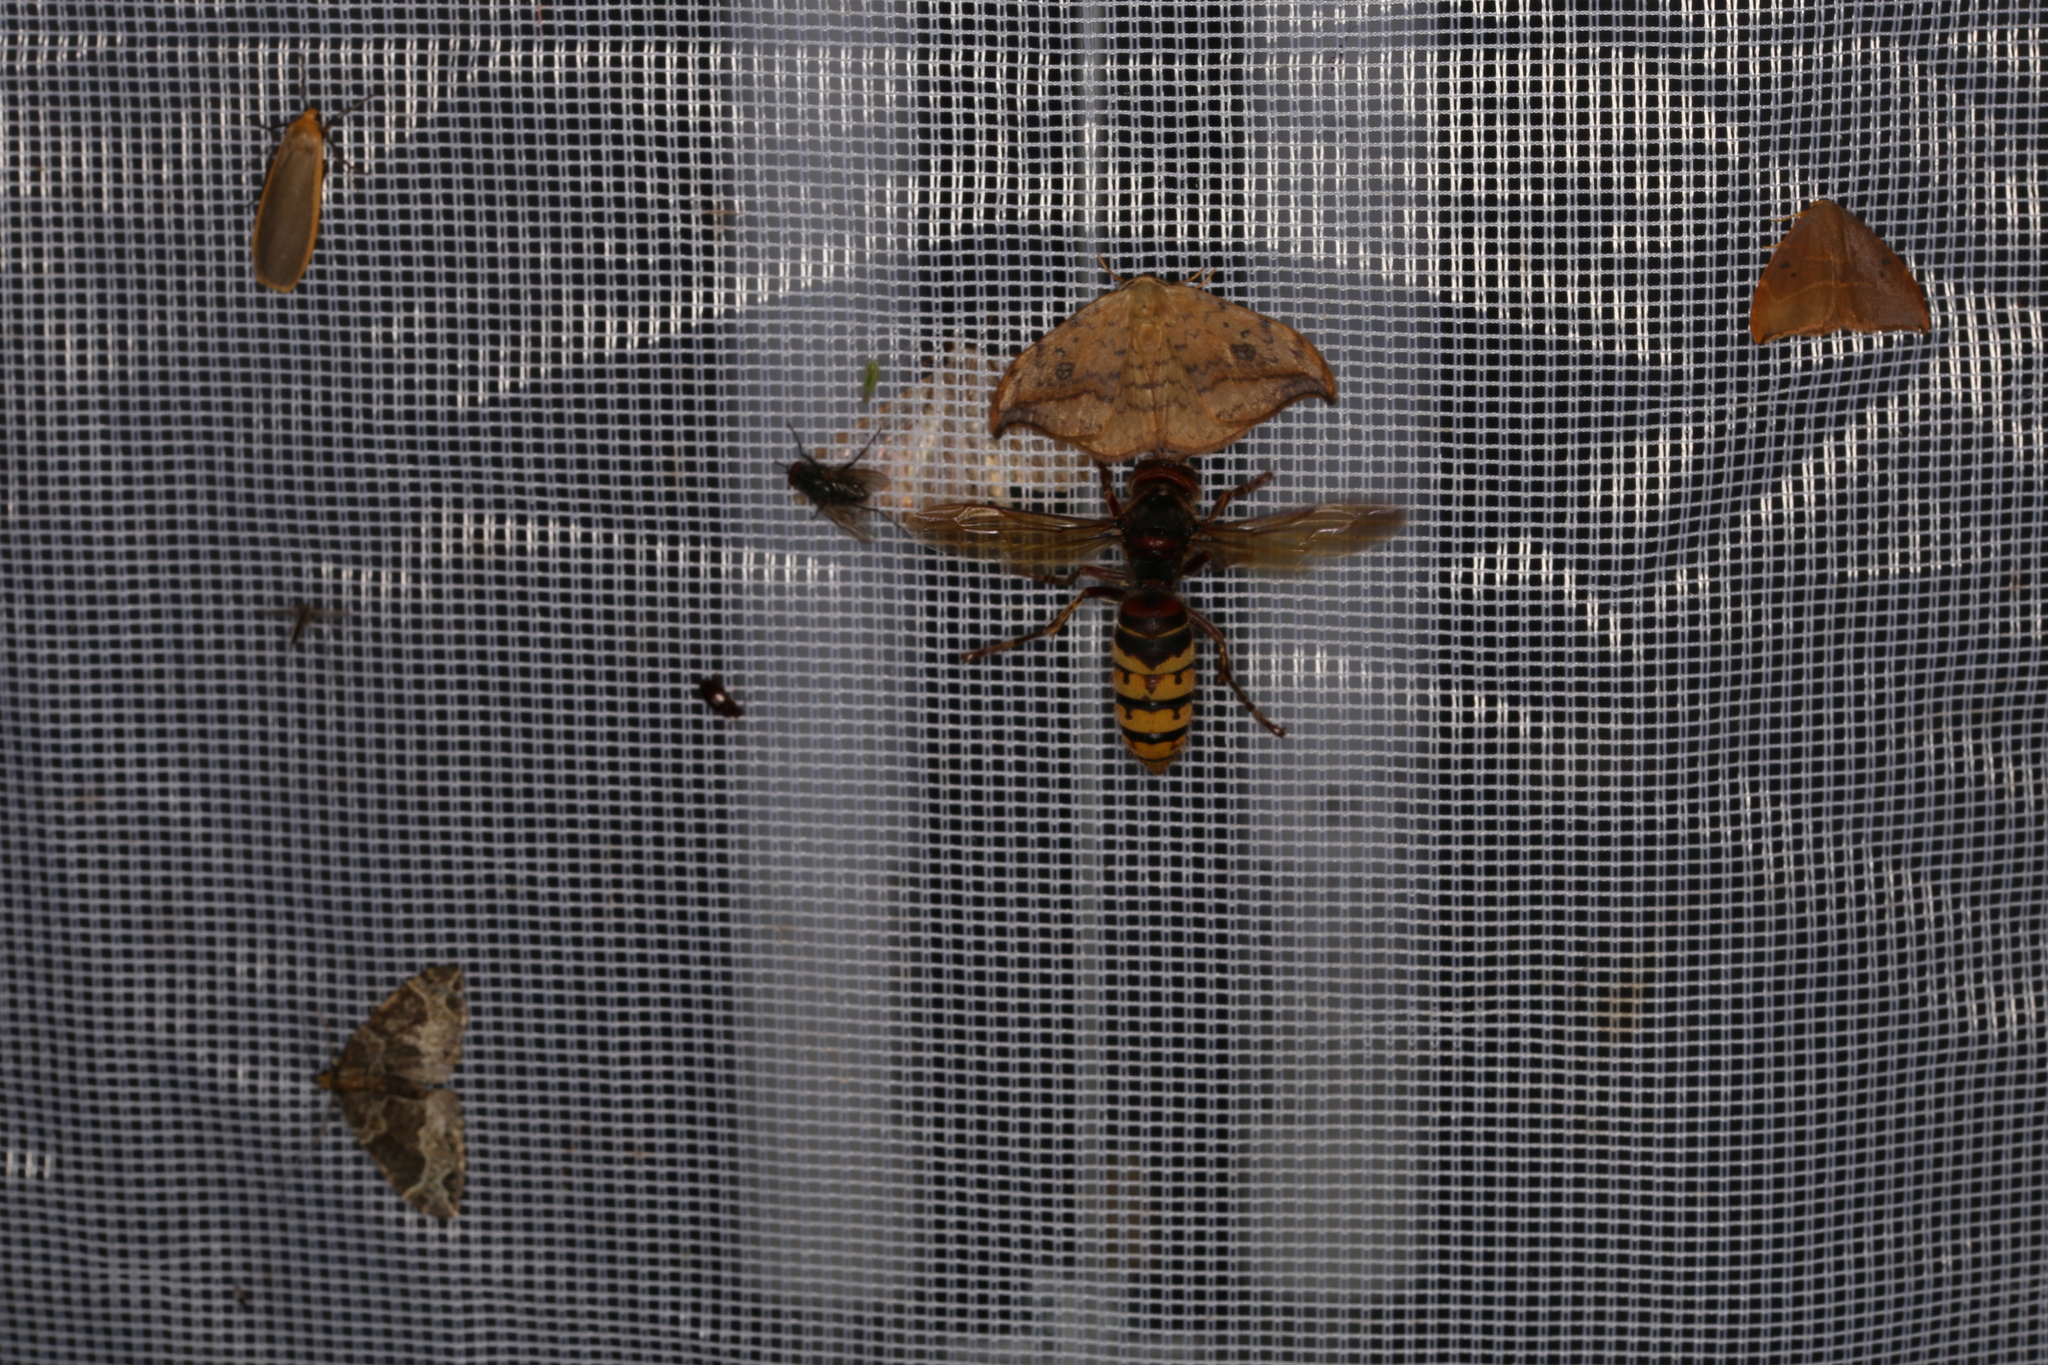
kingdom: Animalia
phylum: Arthropoda
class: Insecta
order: Hymenoptera
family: Vespidae
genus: Vespa
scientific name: Vespa crabro
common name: Hornet
